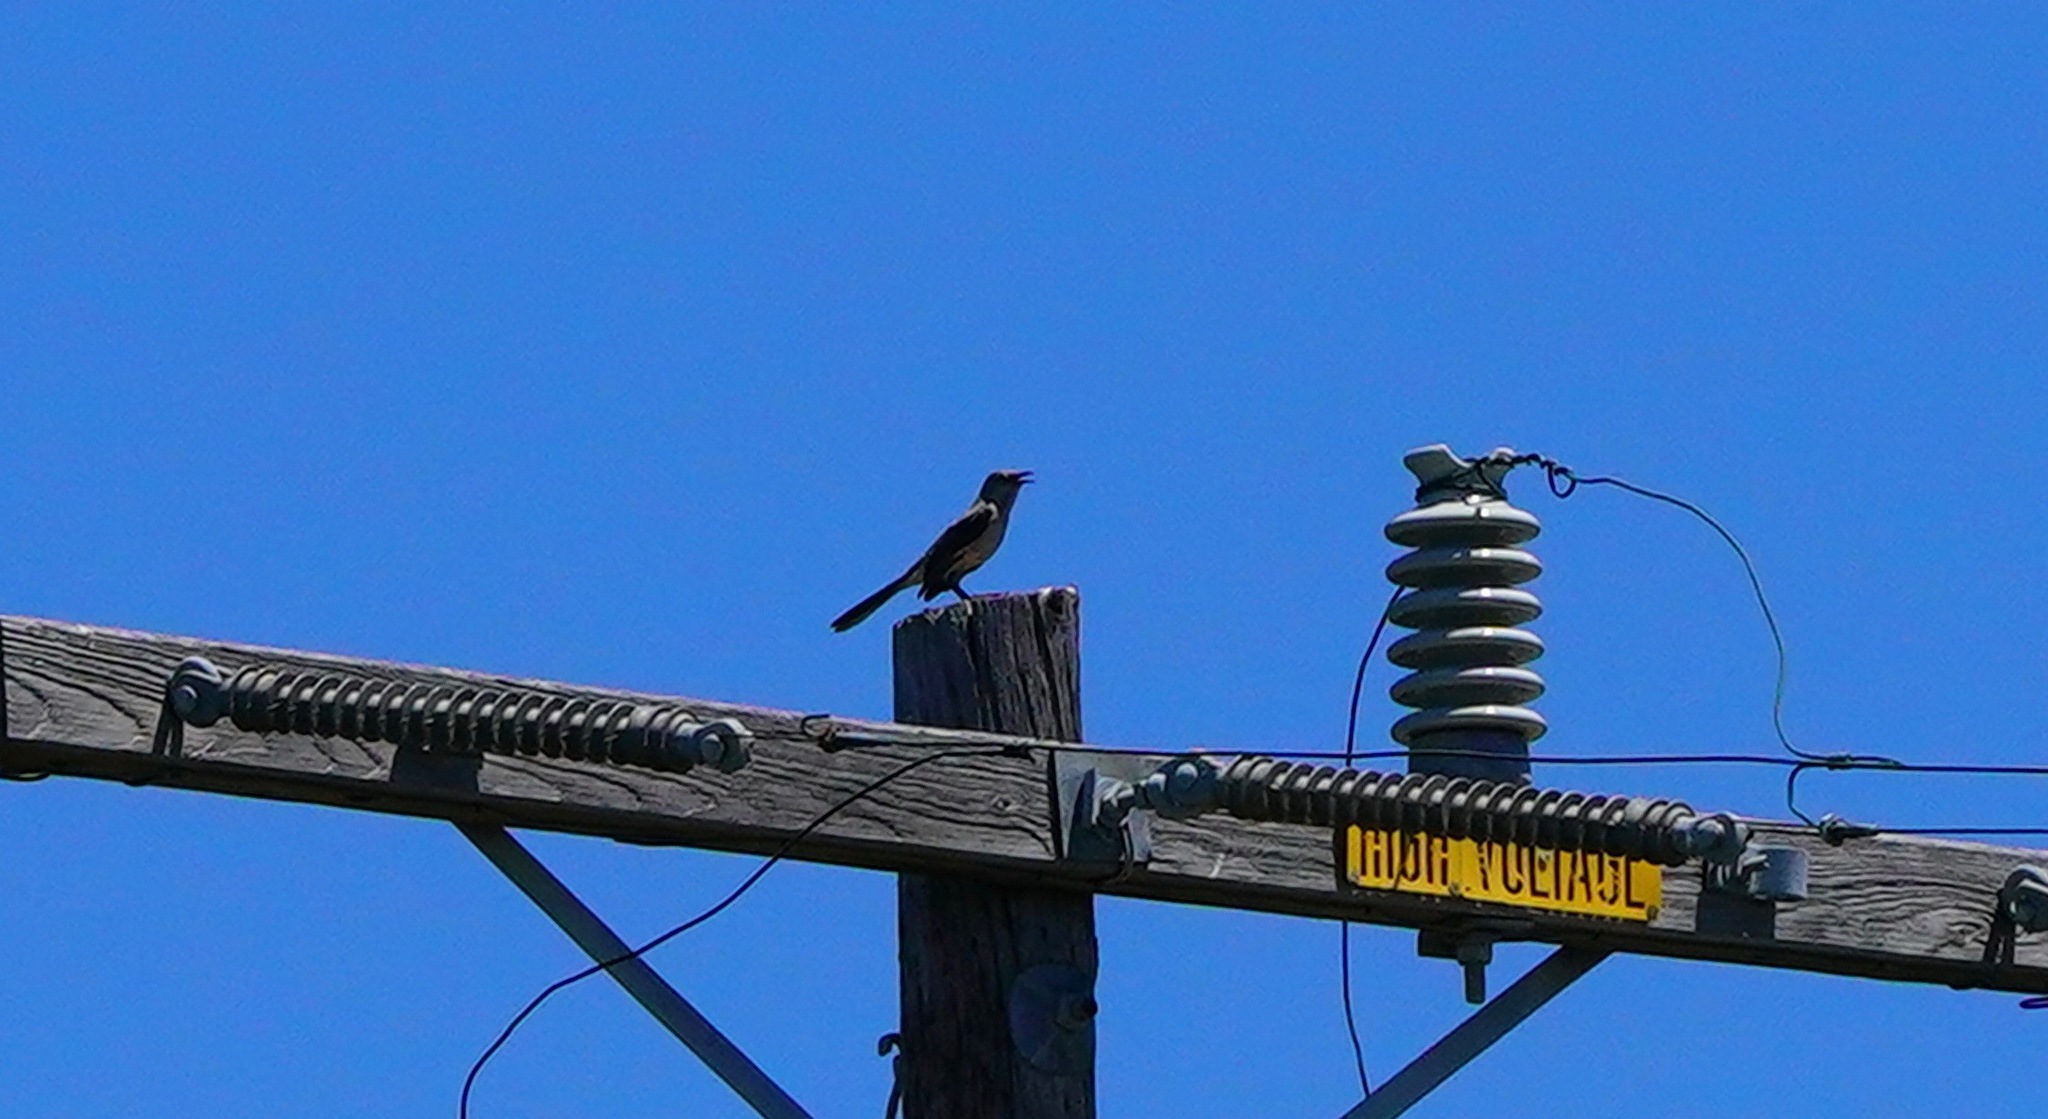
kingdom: Animalia
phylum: Chordata
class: Aves
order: Passeriformes
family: Mimidae
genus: Mimus
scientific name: Mimus polyglottos
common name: Northern mockingbird
